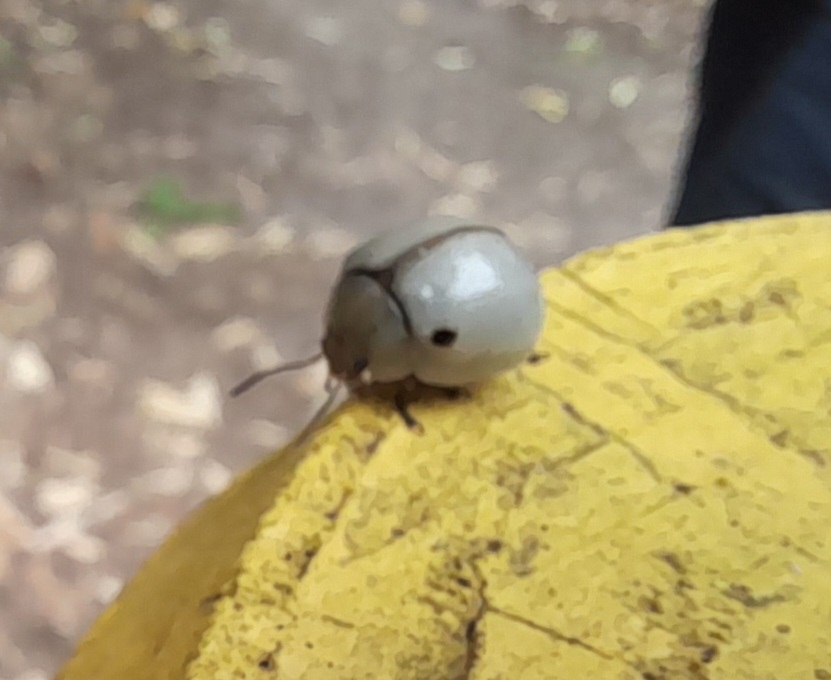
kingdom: Animalia
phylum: Arthropoda
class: Insecta
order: Coleoptera
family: Chrysomelidae
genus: Dicranosterna
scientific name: Dicranosterna
